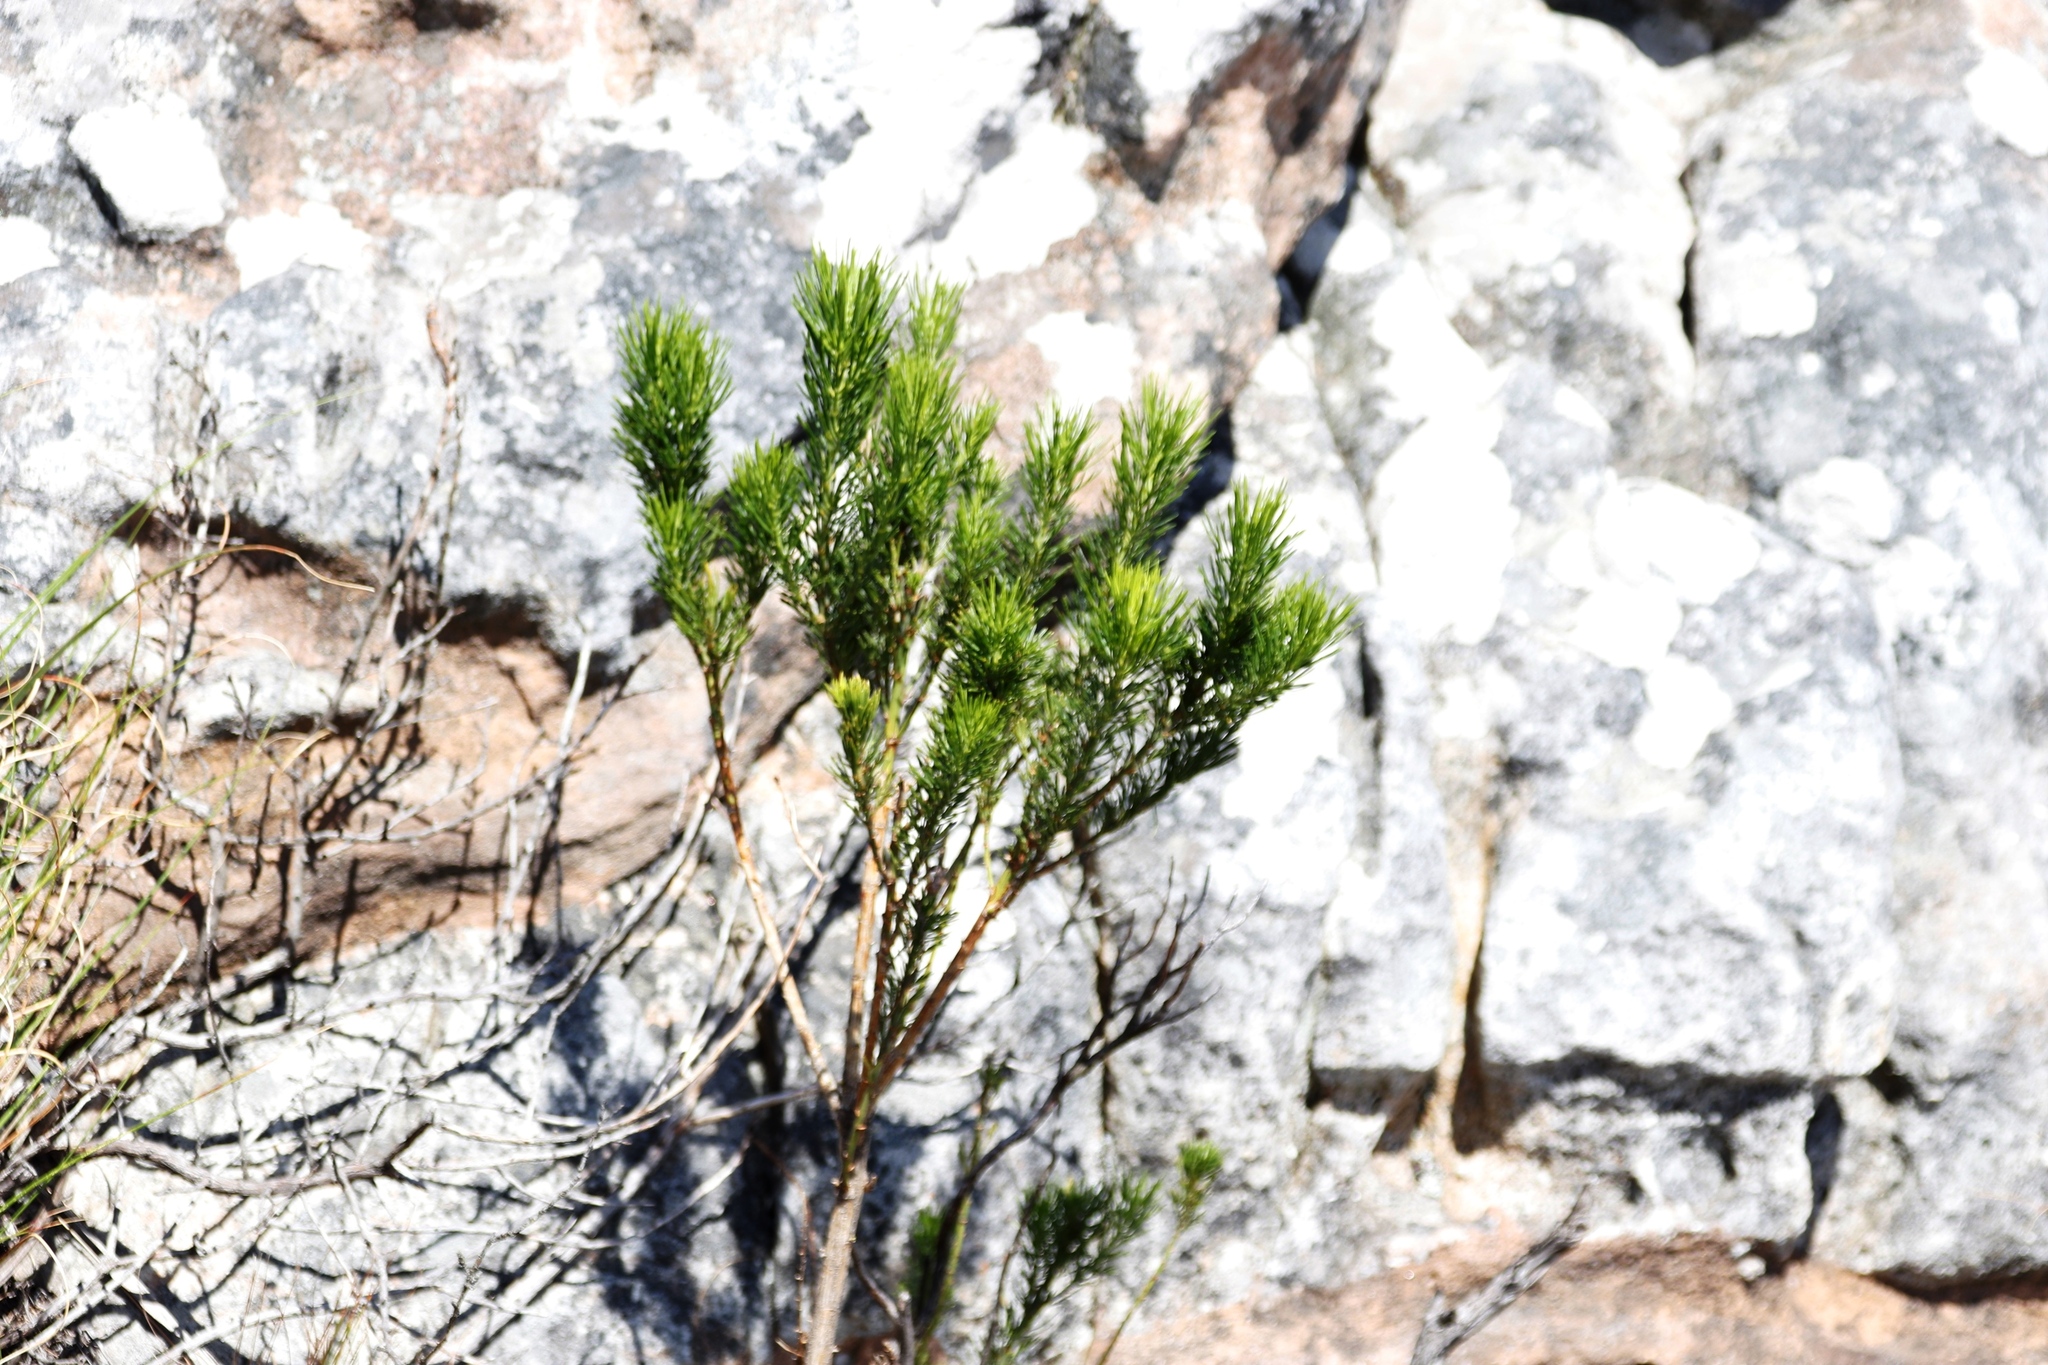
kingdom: Plantae
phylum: Tracheophyta
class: Magnoliopsida
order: Fabales
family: Fabaceae
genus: Psoralea
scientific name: Psoralea pinnata
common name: African scurfpea
